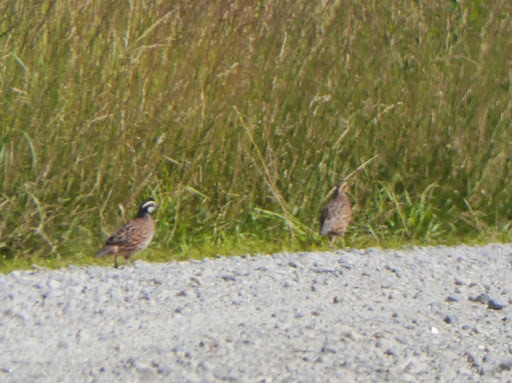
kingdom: Animalia
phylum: Chordata
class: Aves
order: Galliformes
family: Odontophoridae
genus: Colinus
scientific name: Colinus virginianus
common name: Northern bobwhite
